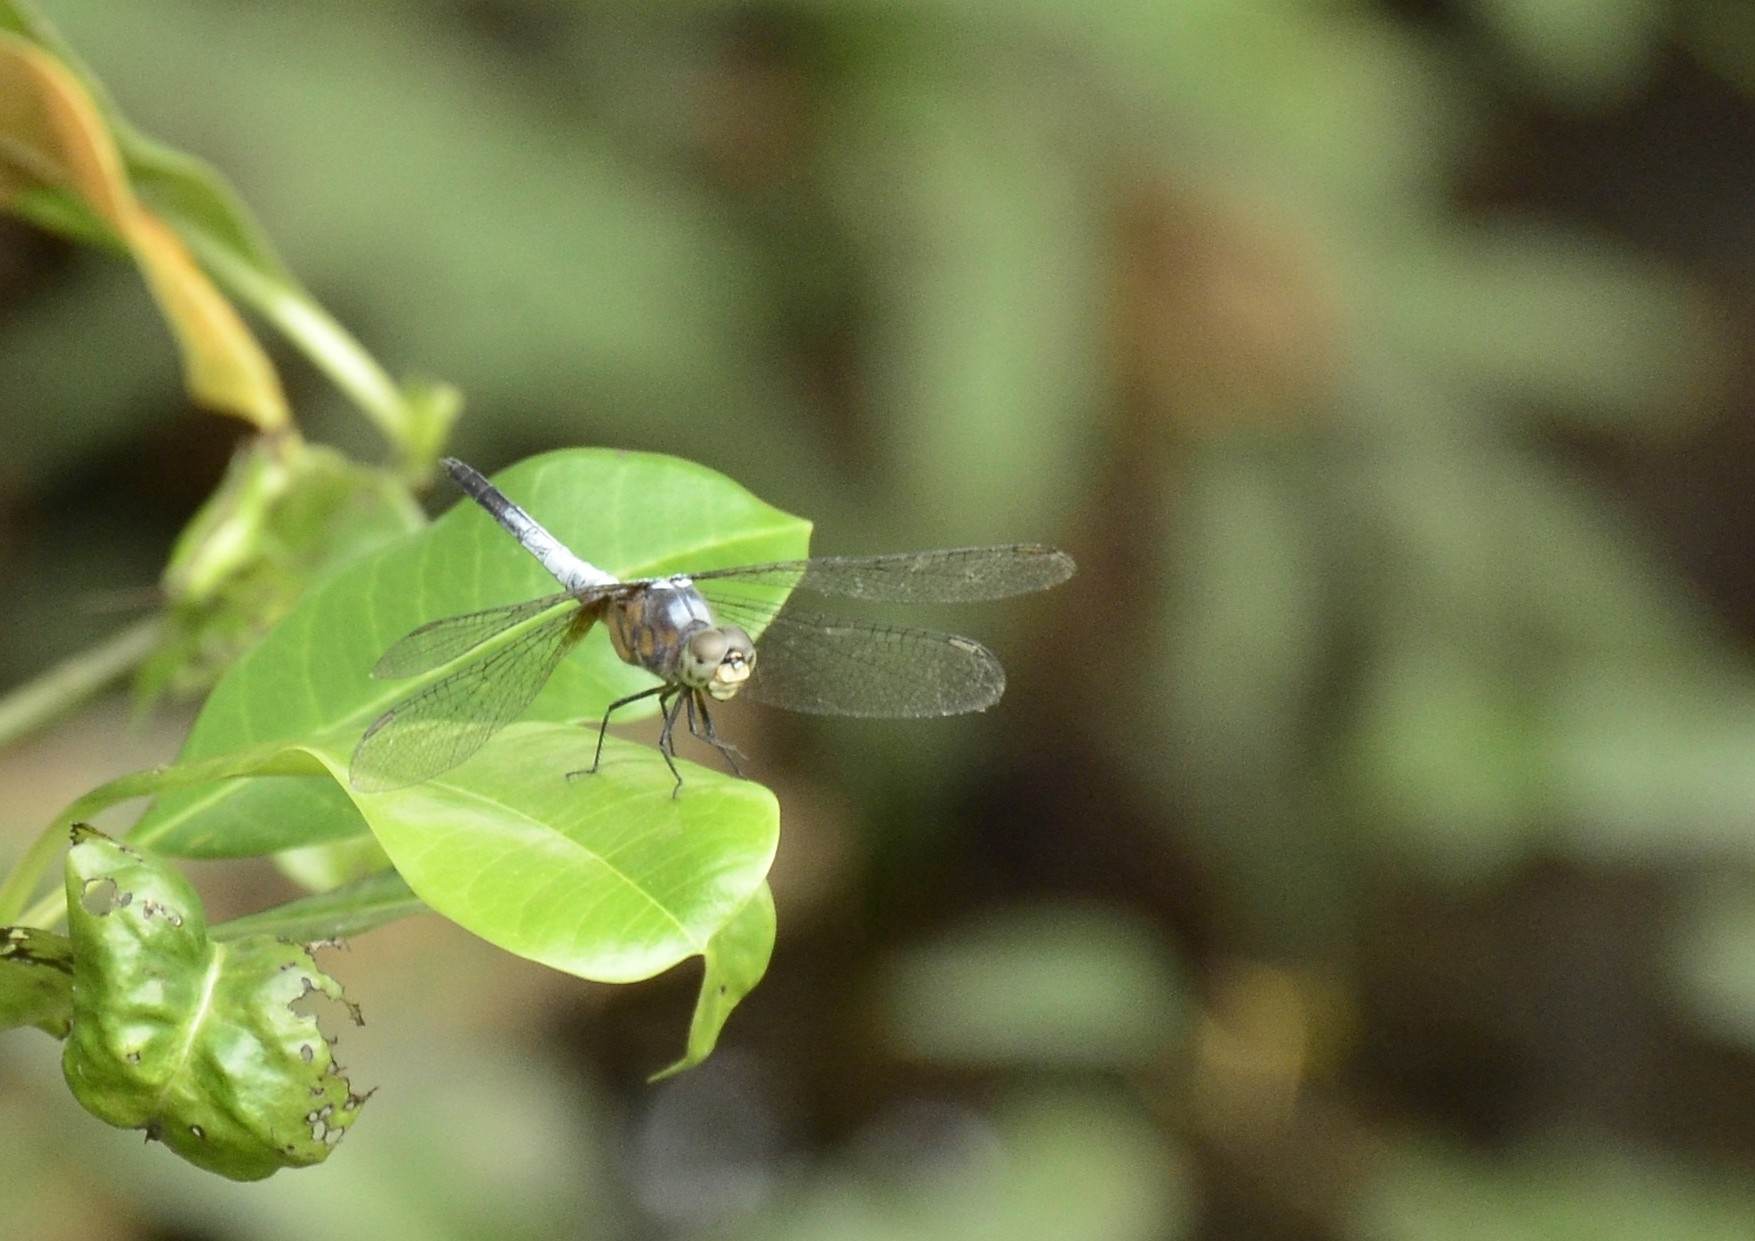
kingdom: Animalia
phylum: Arthropoda
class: Insecta
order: Odonata
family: Libellulidae
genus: Brachydiplax
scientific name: Brachydiplax chalybea
